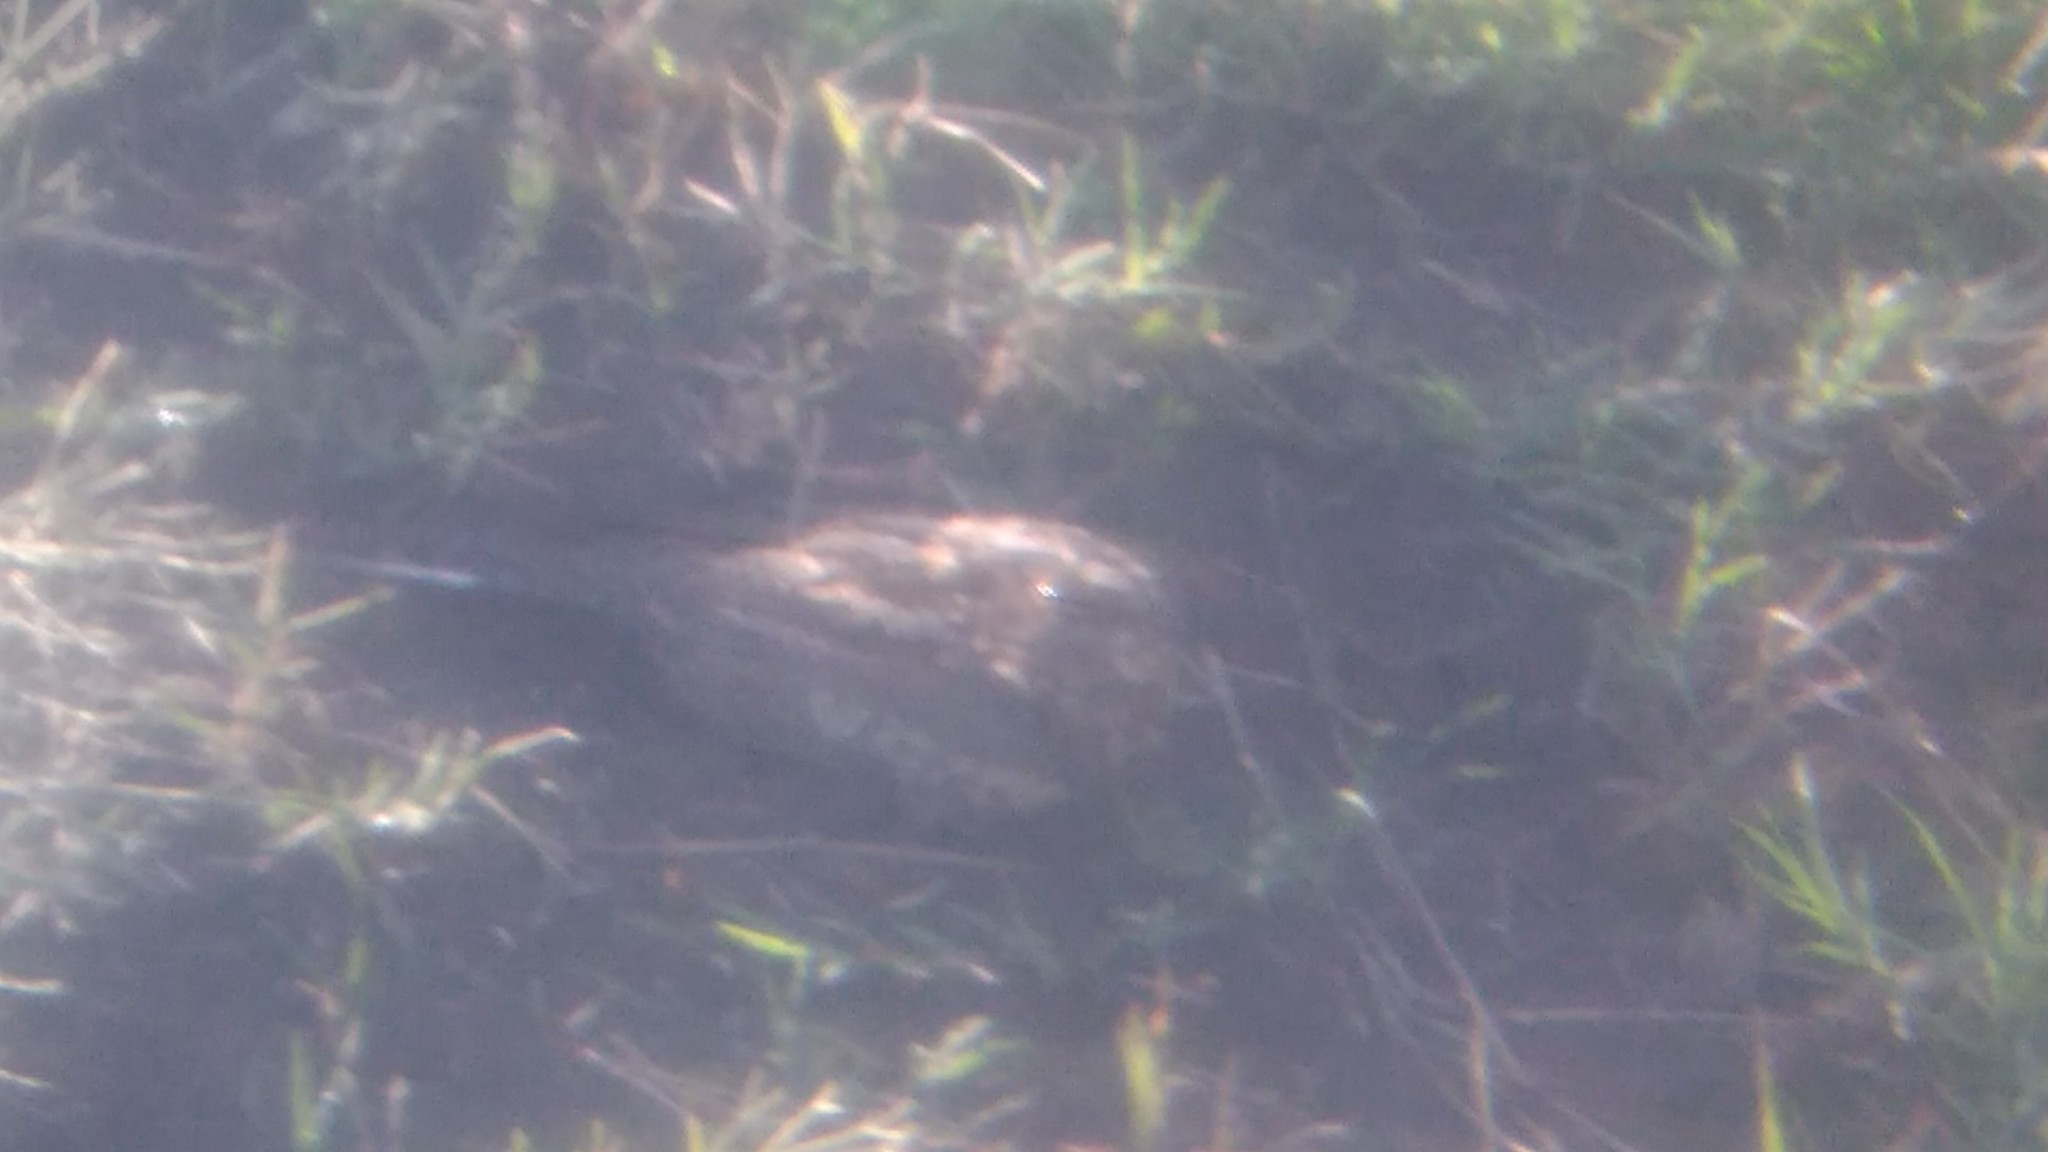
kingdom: Animalia
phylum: Chordata
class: Aves
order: Caprimulgiformes
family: Caprimulgidae
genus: Systellura
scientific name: Systellura longirostris
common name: Band-winged nightjar
